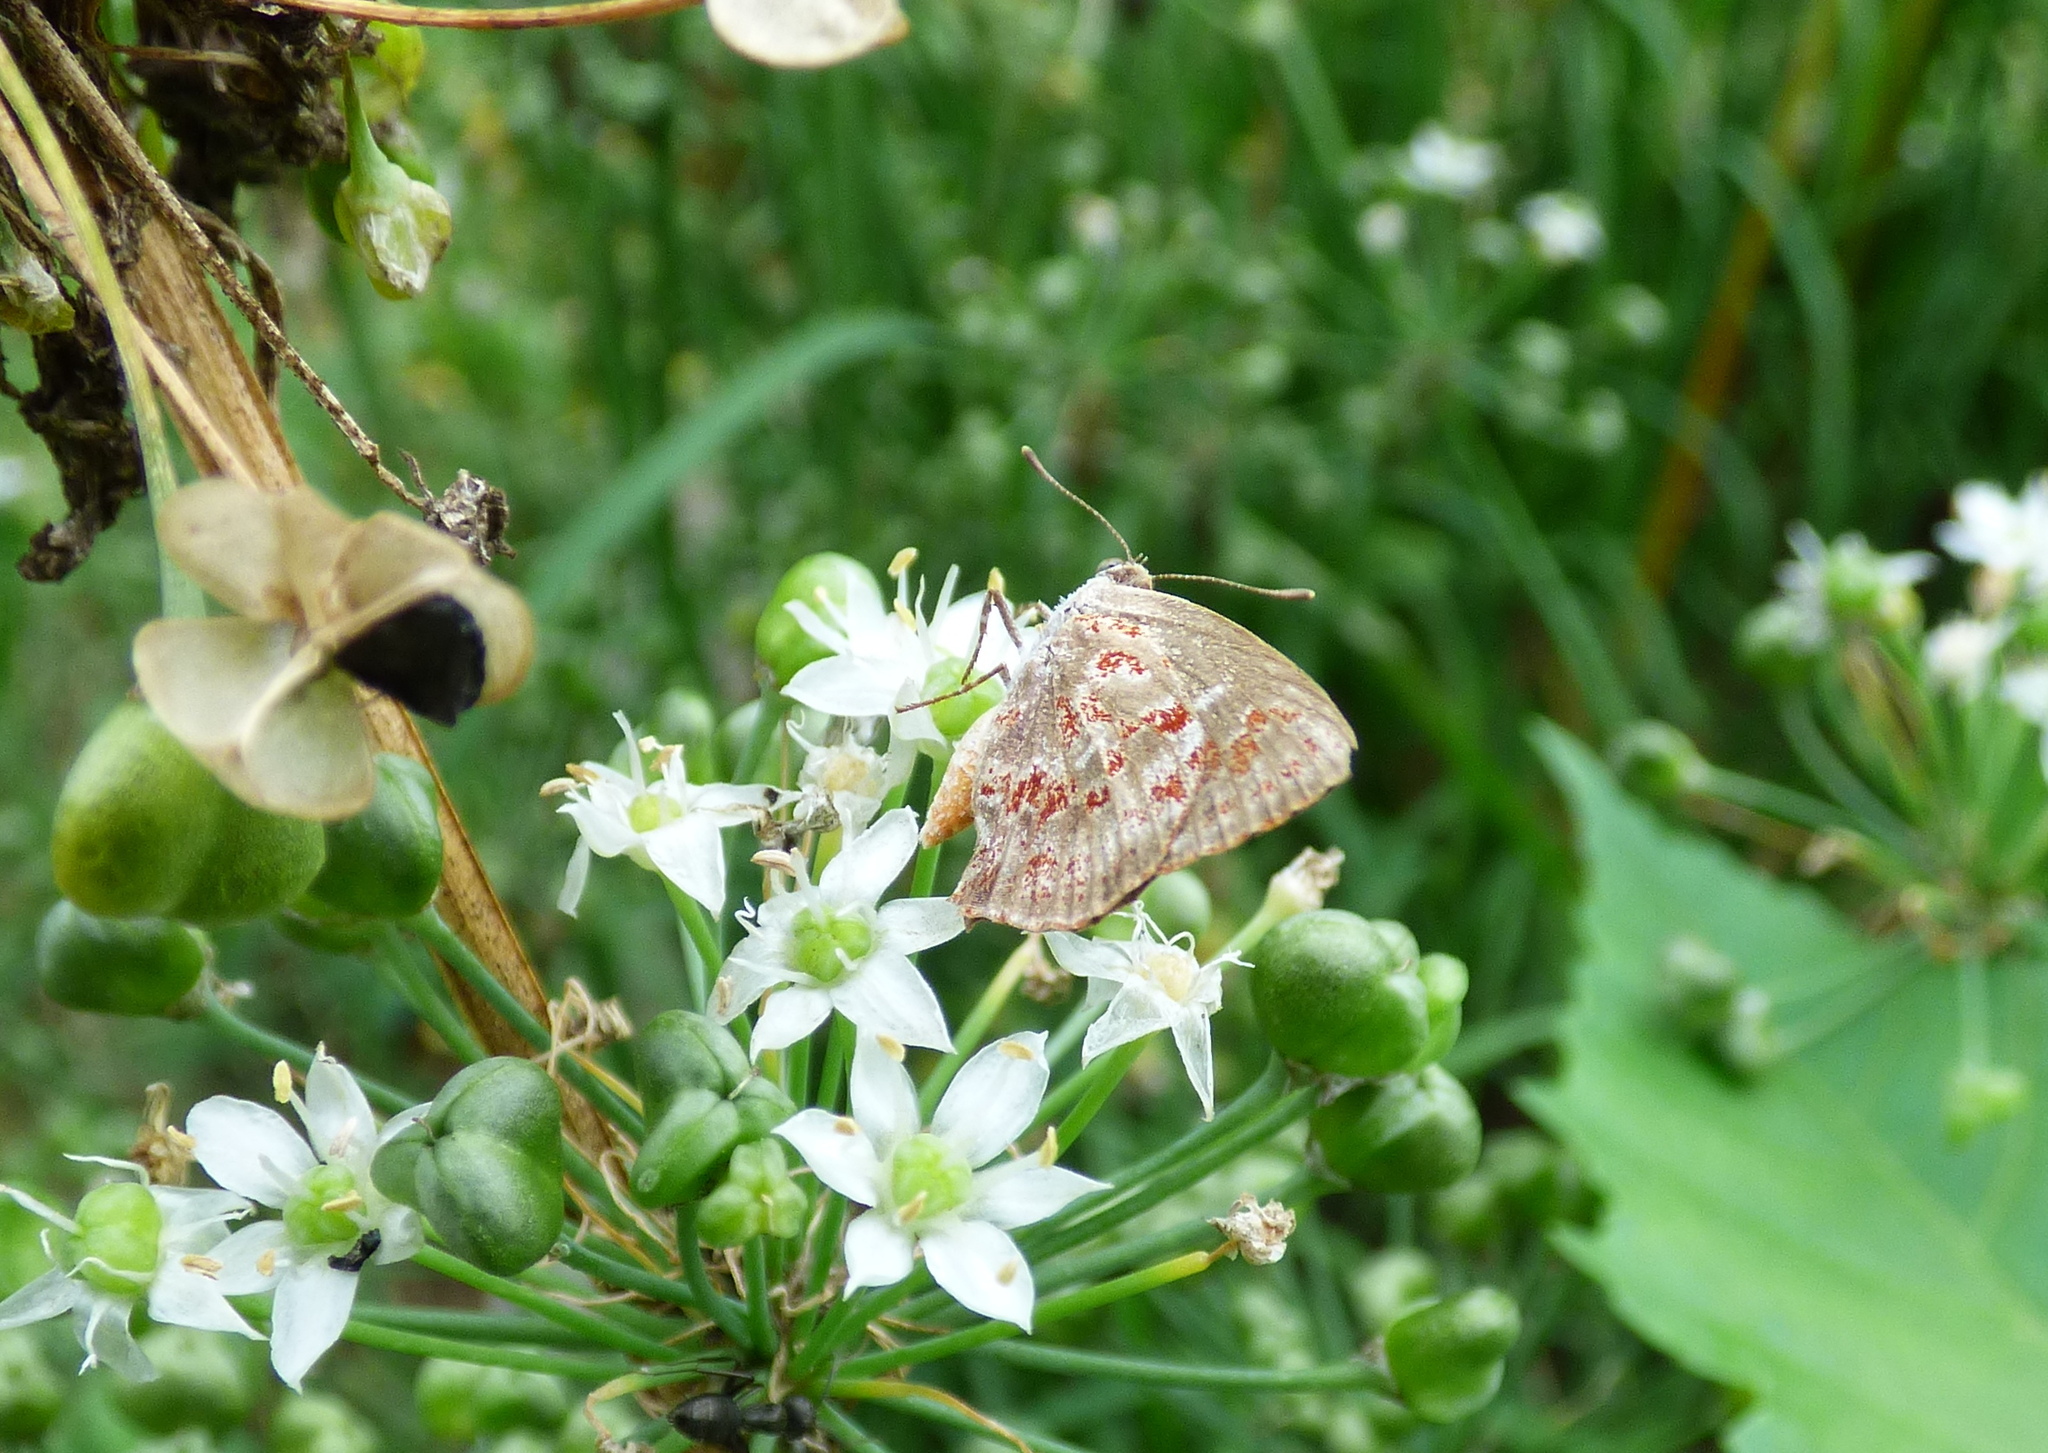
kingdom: Animalia
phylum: Arthropoda
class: Insecta
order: Lepidoptera
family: Lycaenidae
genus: Ministrymon
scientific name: Ministrymon
